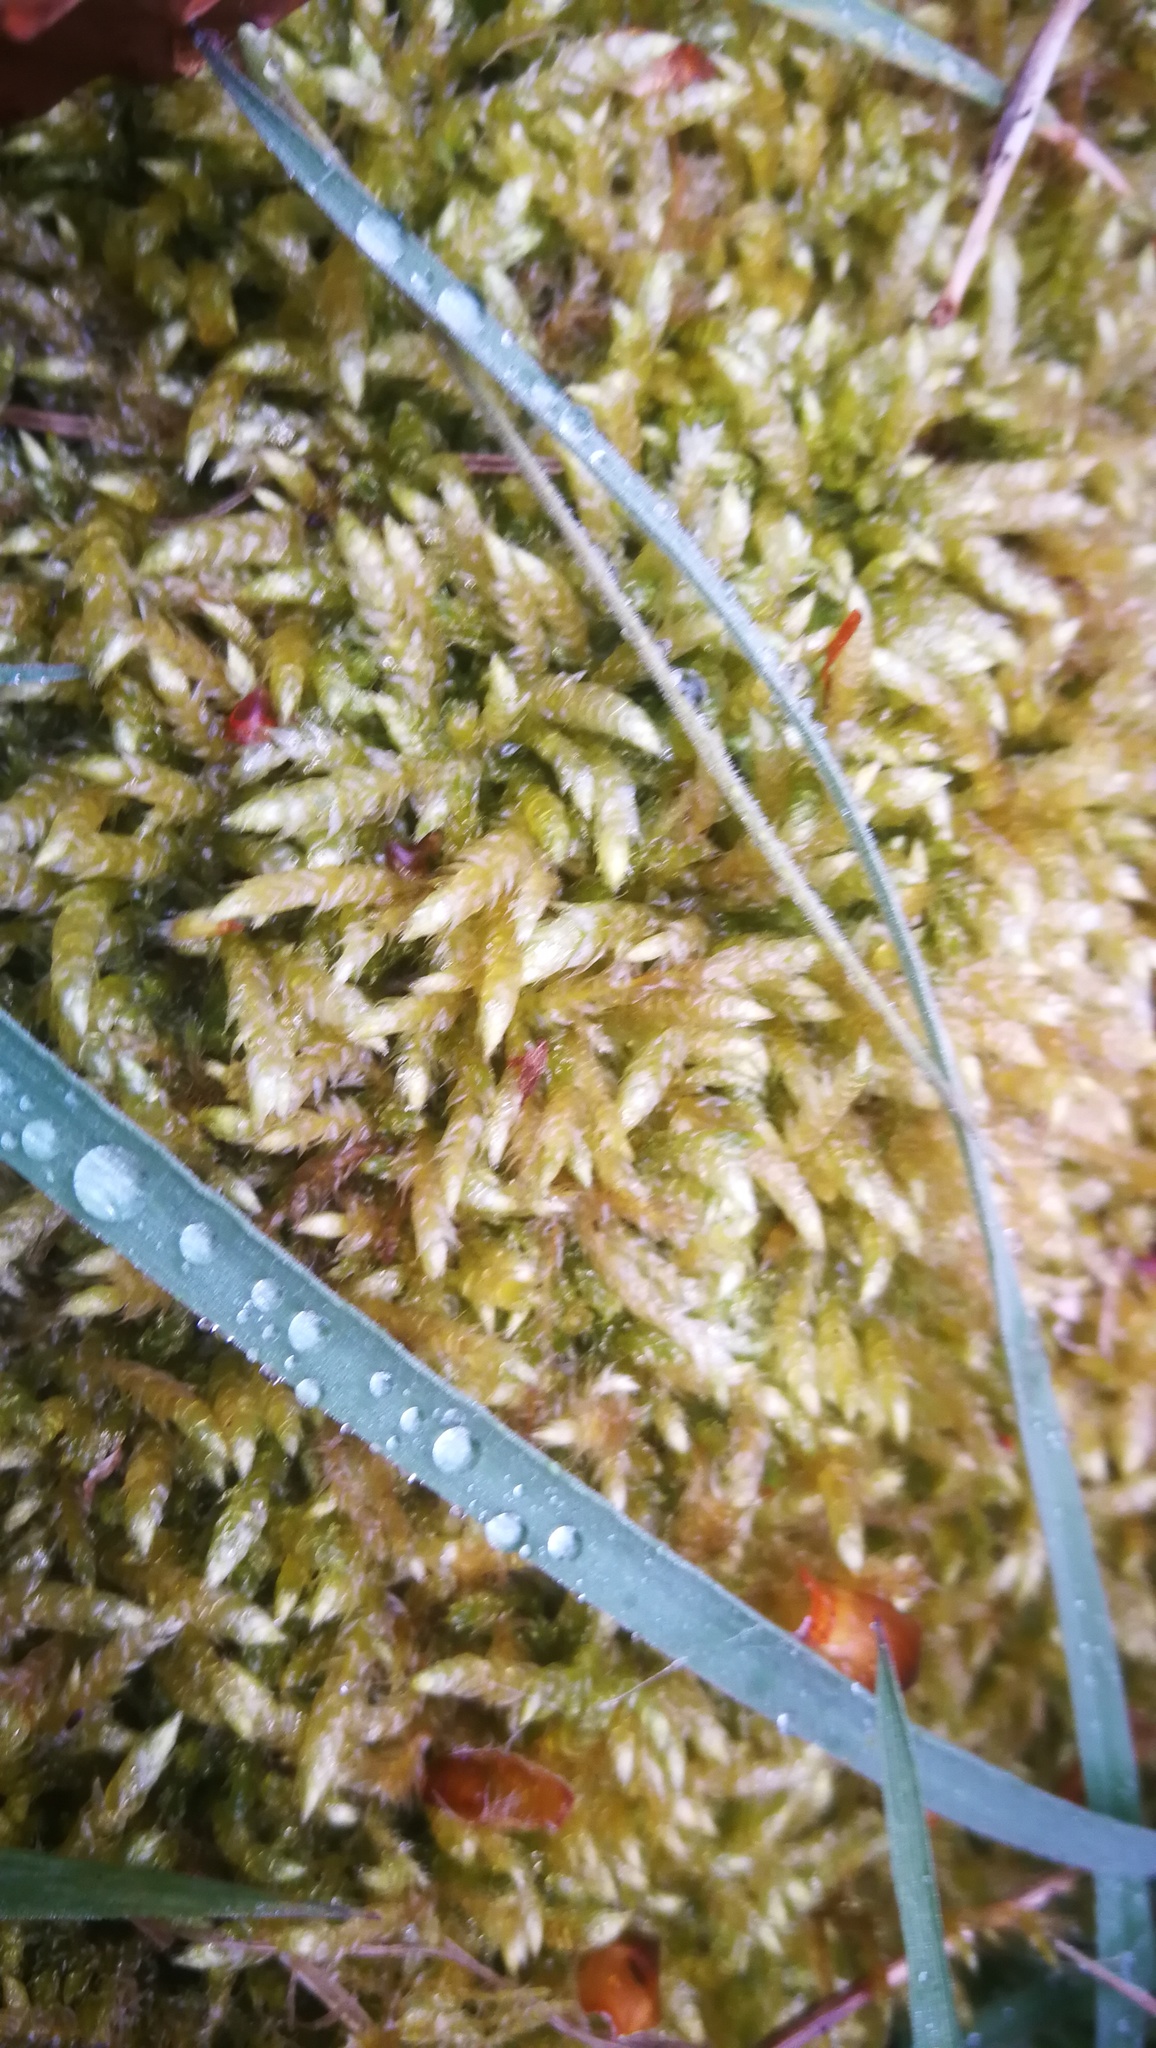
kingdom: Plantae
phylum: Bryophyta
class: Bryopsida
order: Hypnales
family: Brachytheciaceae
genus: Brachythecium
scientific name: Brachythecium rutabulum
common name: Rough-stalked feather-moss
